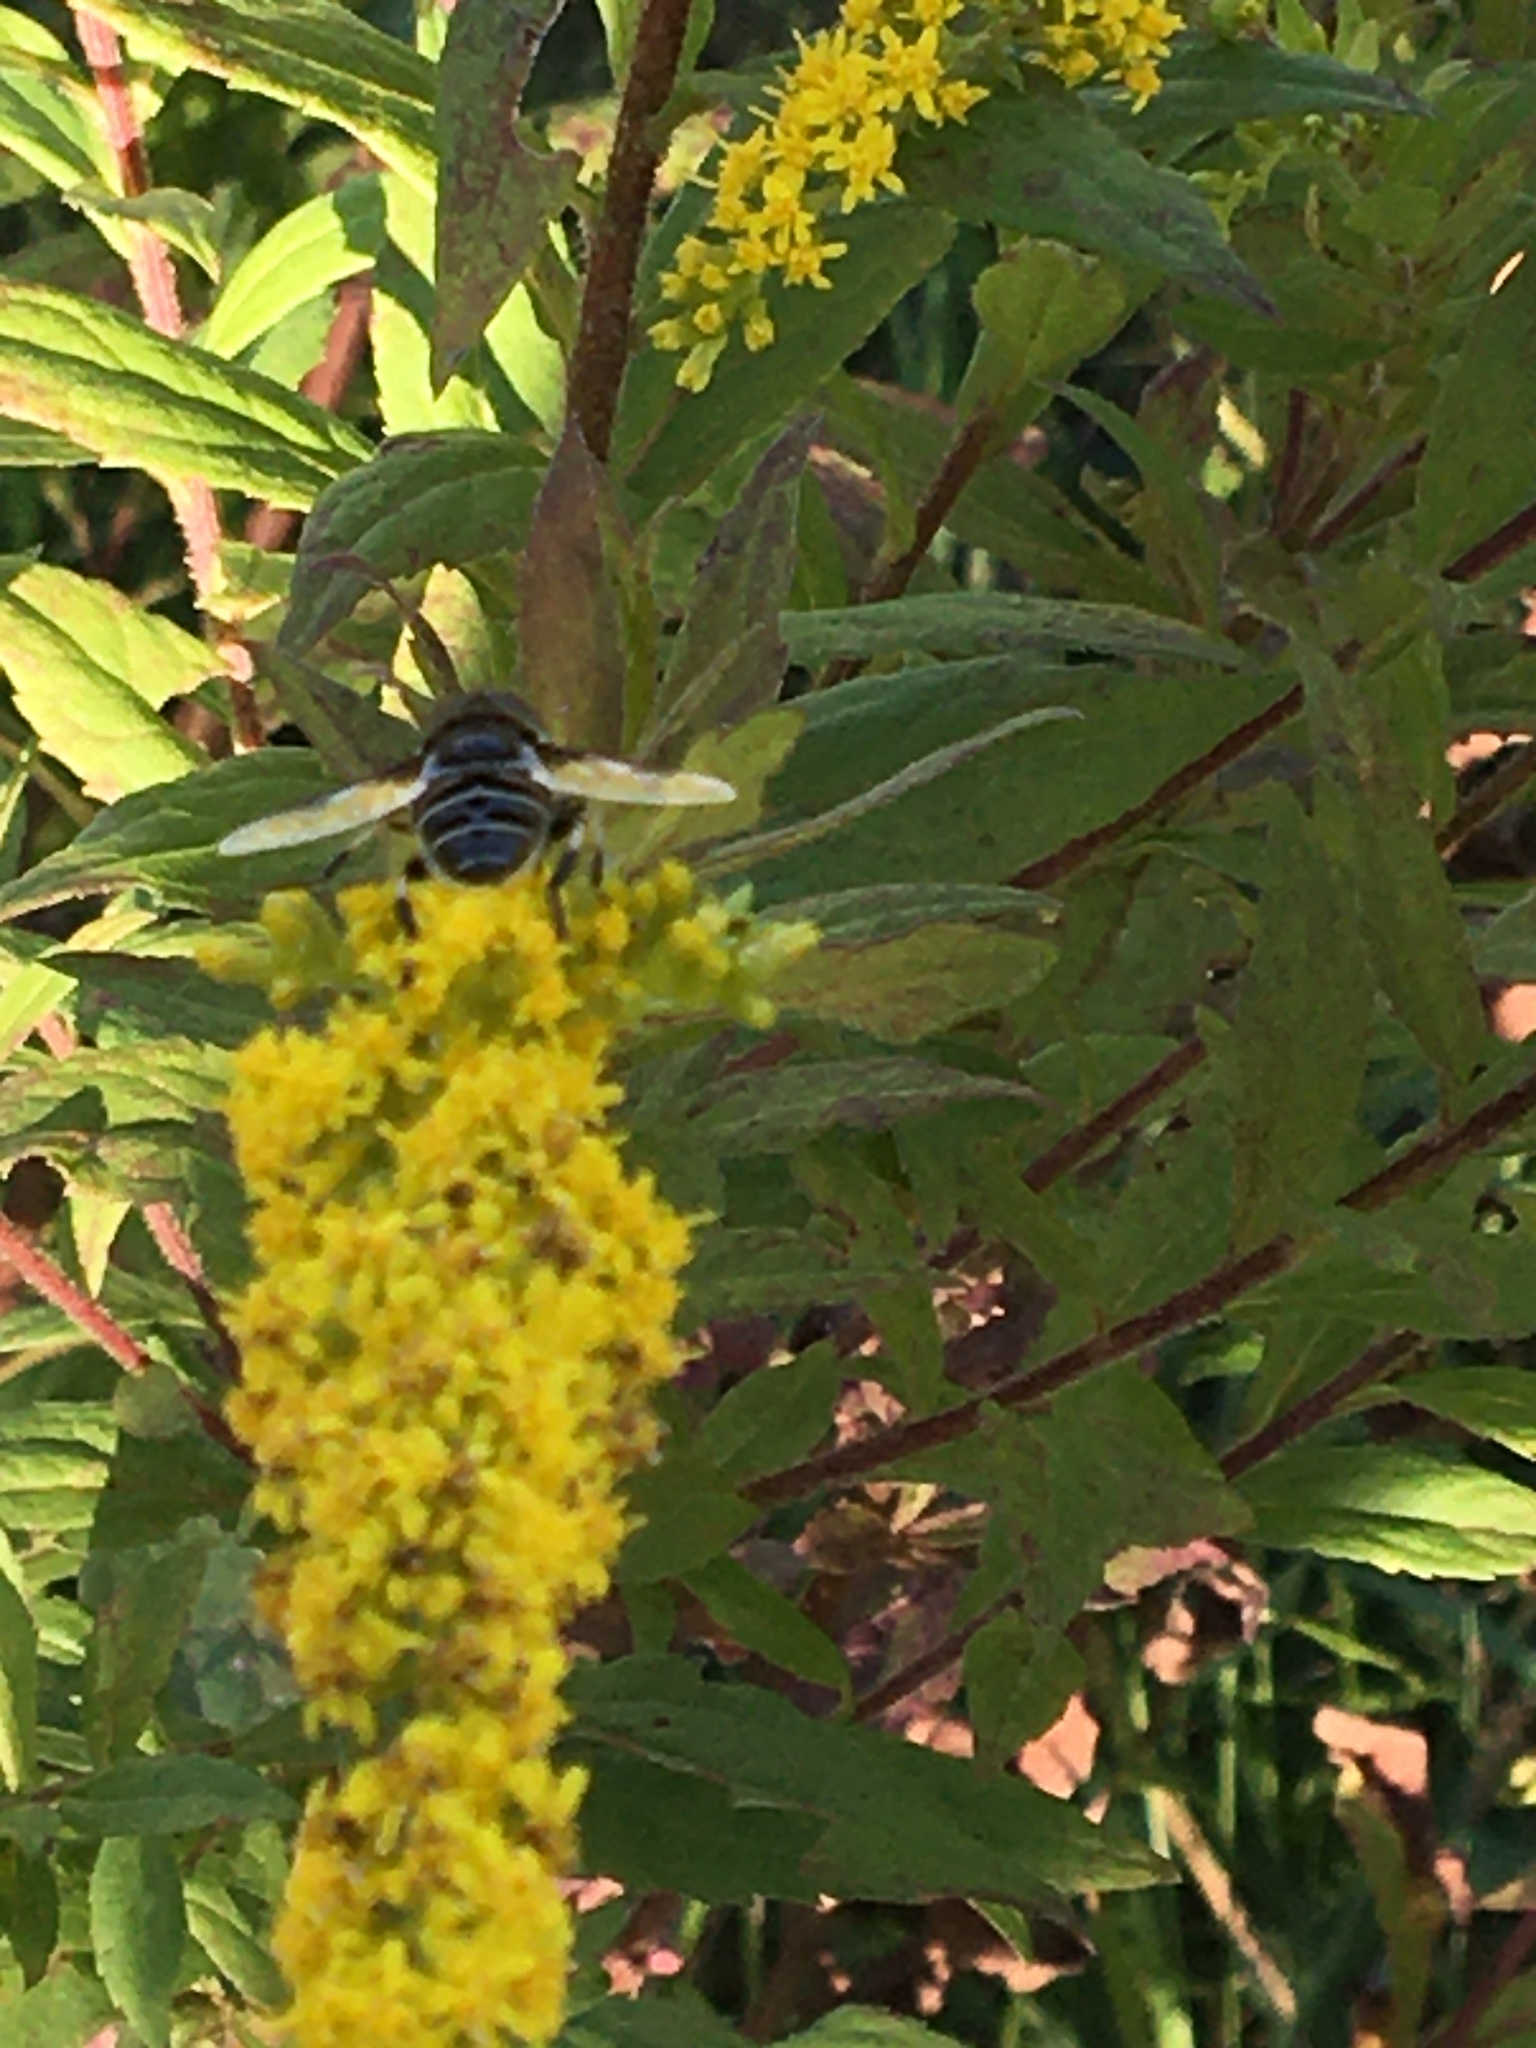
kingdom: Animalia
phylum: Arthropoda
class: Insecta
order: Diptera
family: Syrphidae
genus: Eristalis
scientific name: Eristalis dimidiata
